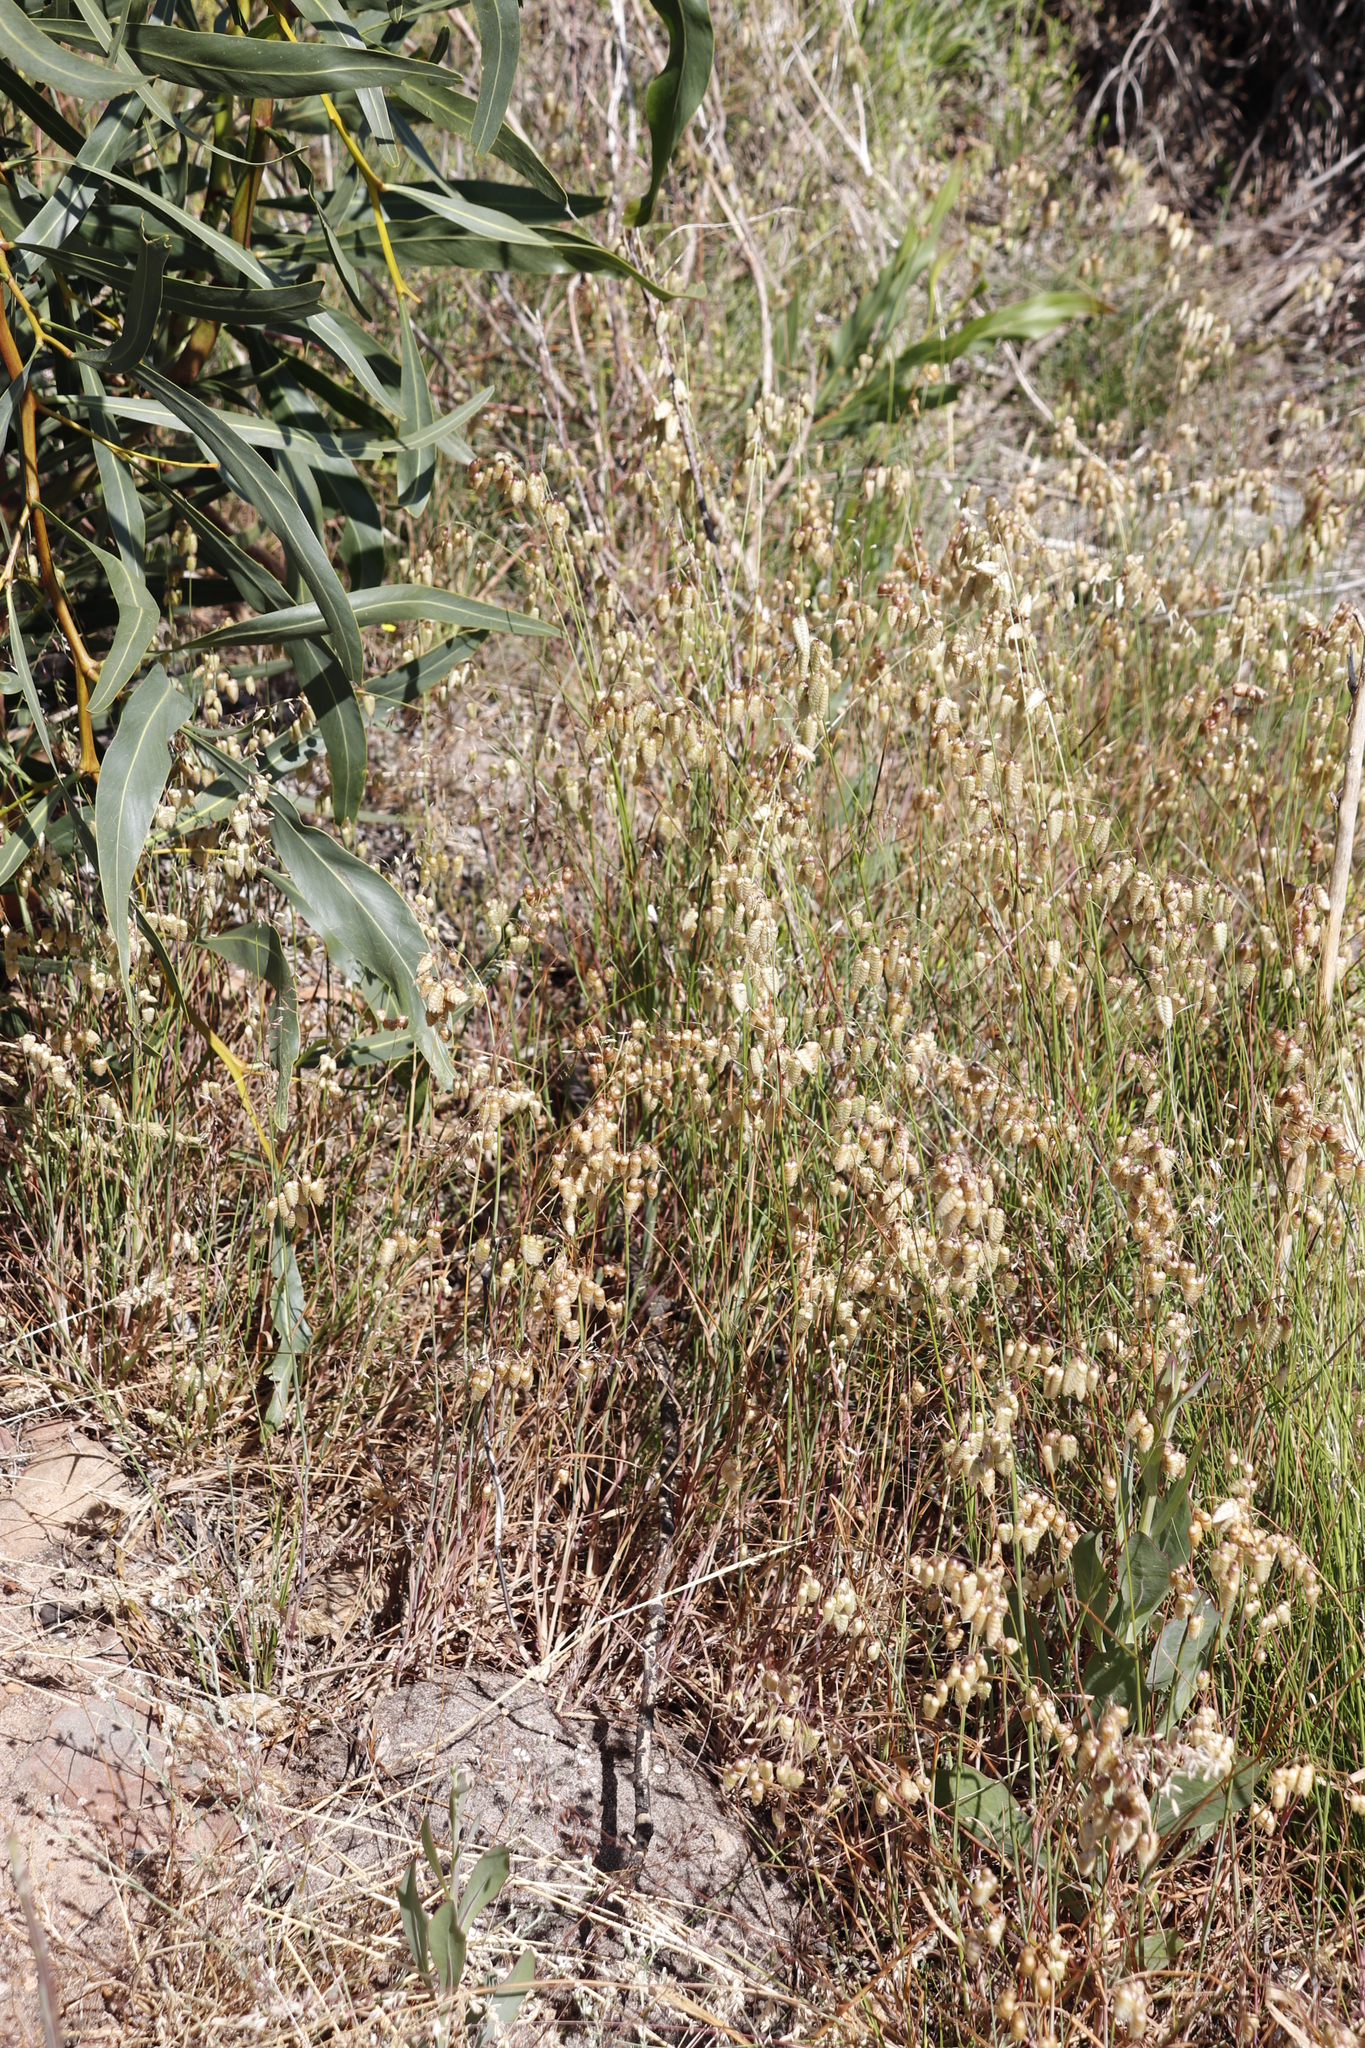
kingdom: Plantae
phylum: Tracheophyta
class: Liliopsida
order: Poales
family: Poaceae
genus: Briza
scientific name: Briza maxima
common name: Big quakinggrass
